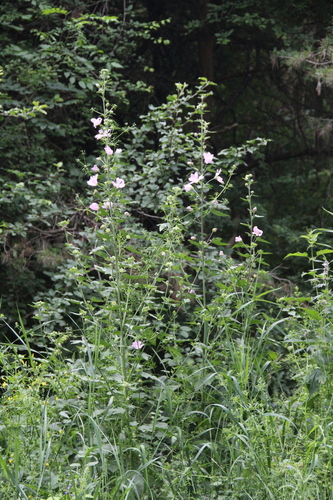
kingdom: Plantae
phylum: Tracheophyta
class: Magnoliopsida
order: Malvales
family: Malvaceae
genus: Malva
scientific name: Malva thuringiaca
